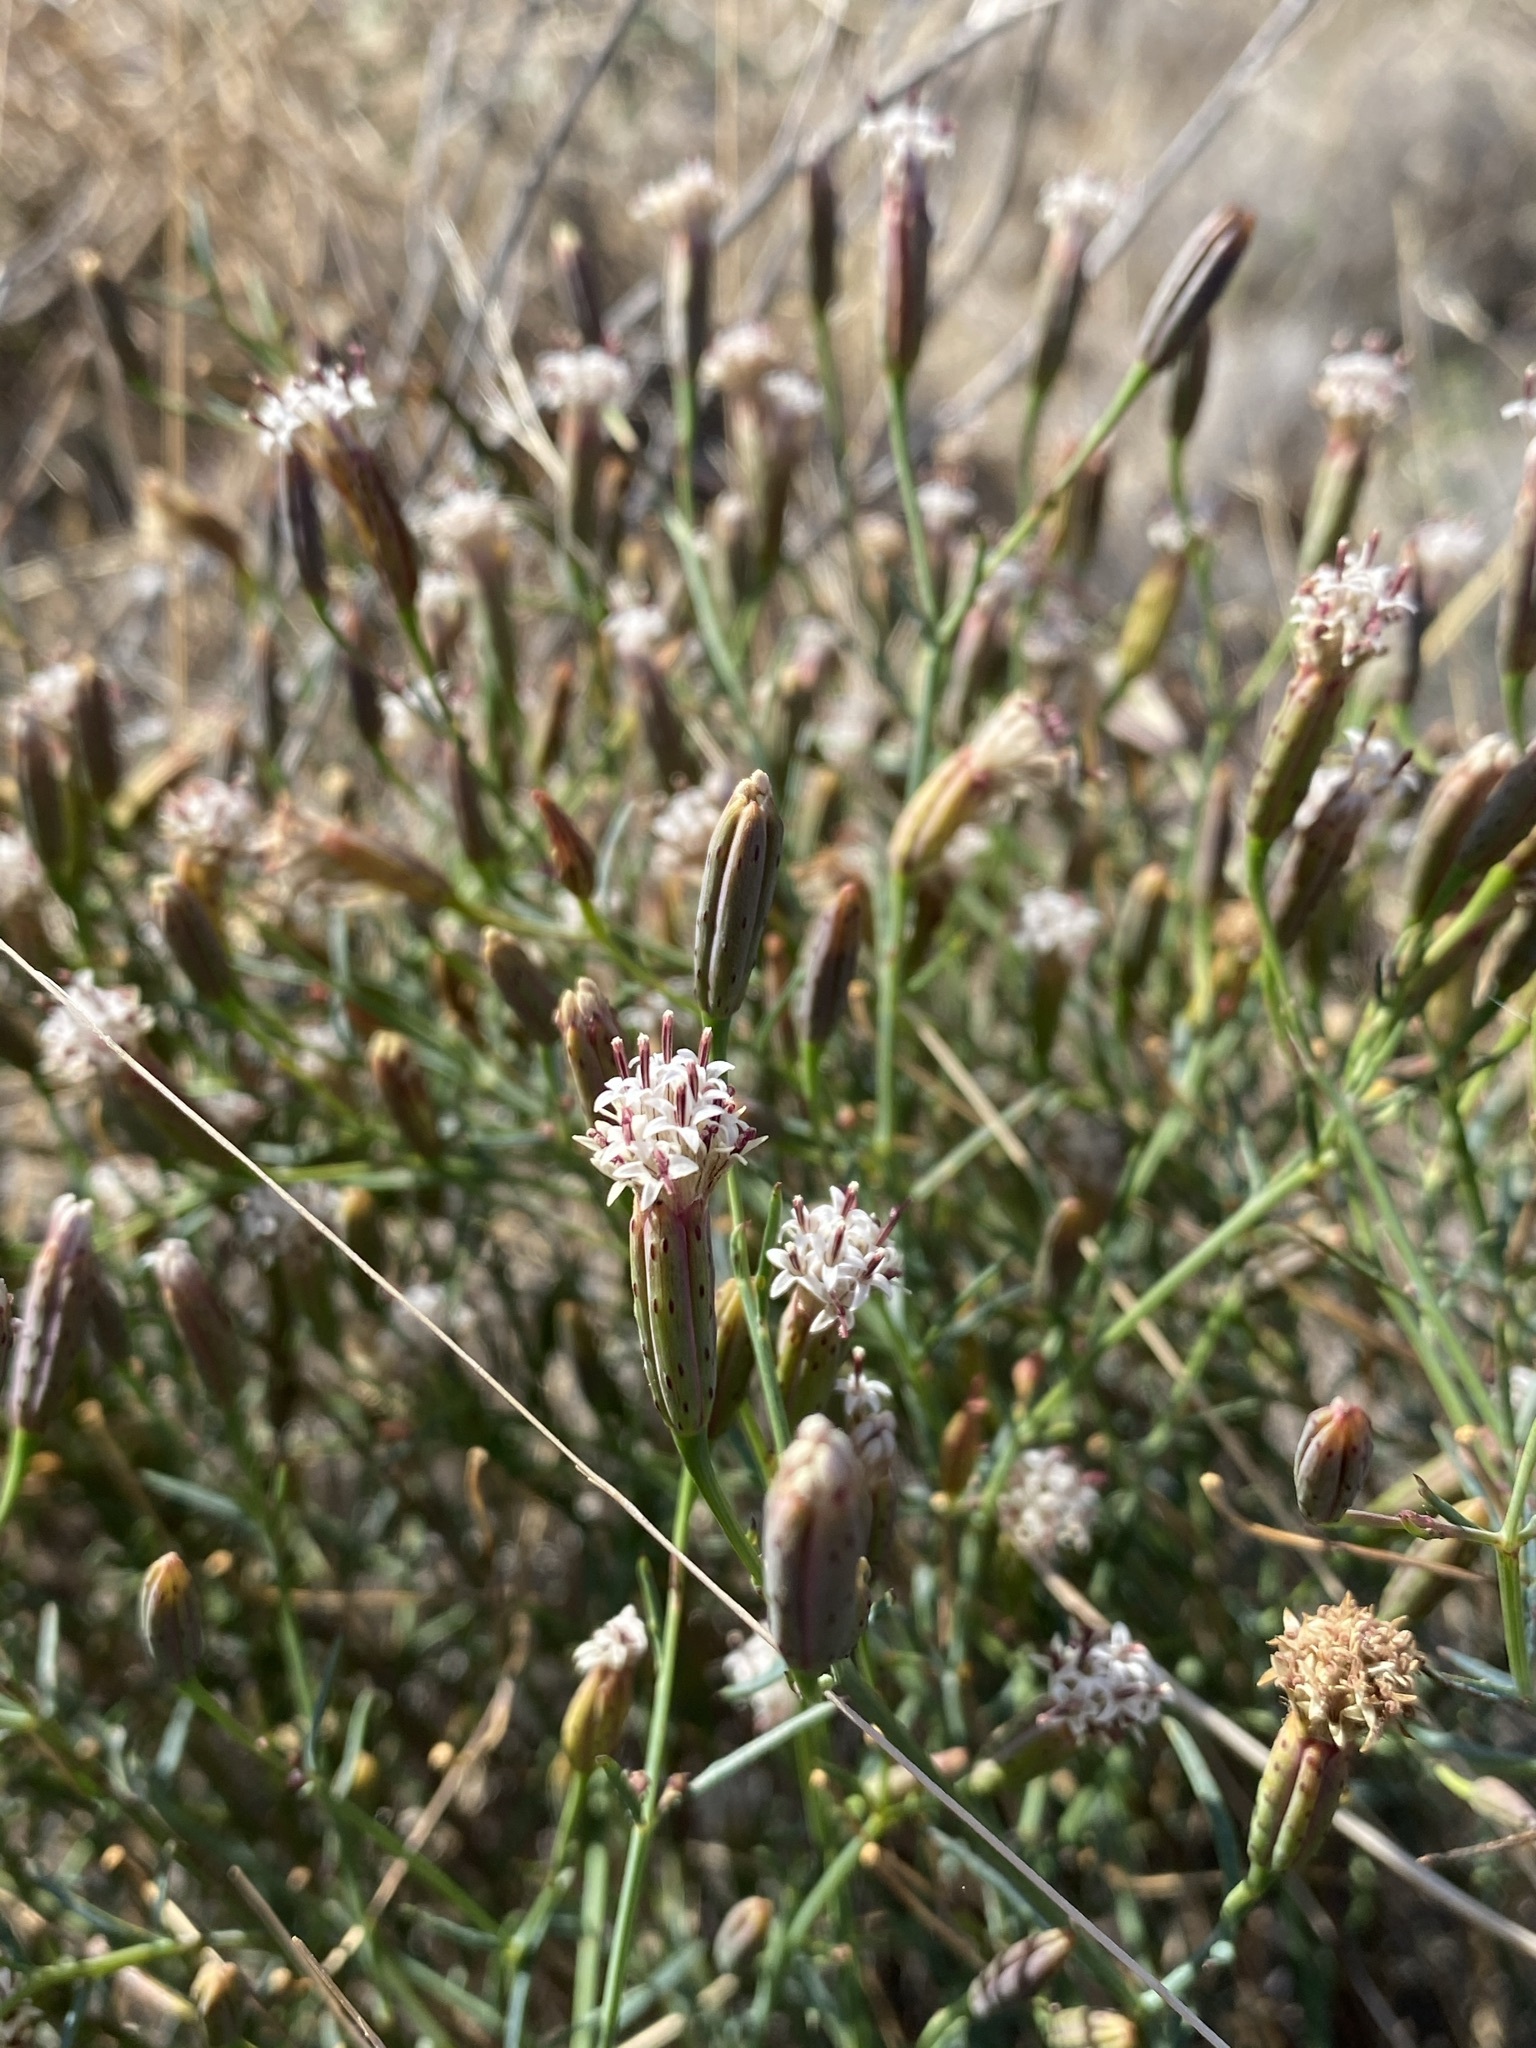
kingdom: Plantae
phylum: Tracheophyta
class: Magnoliopsida
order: Asterales
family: Asteraceae
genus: Porophyllum
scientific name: Porophyllum gracile
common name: Odora
